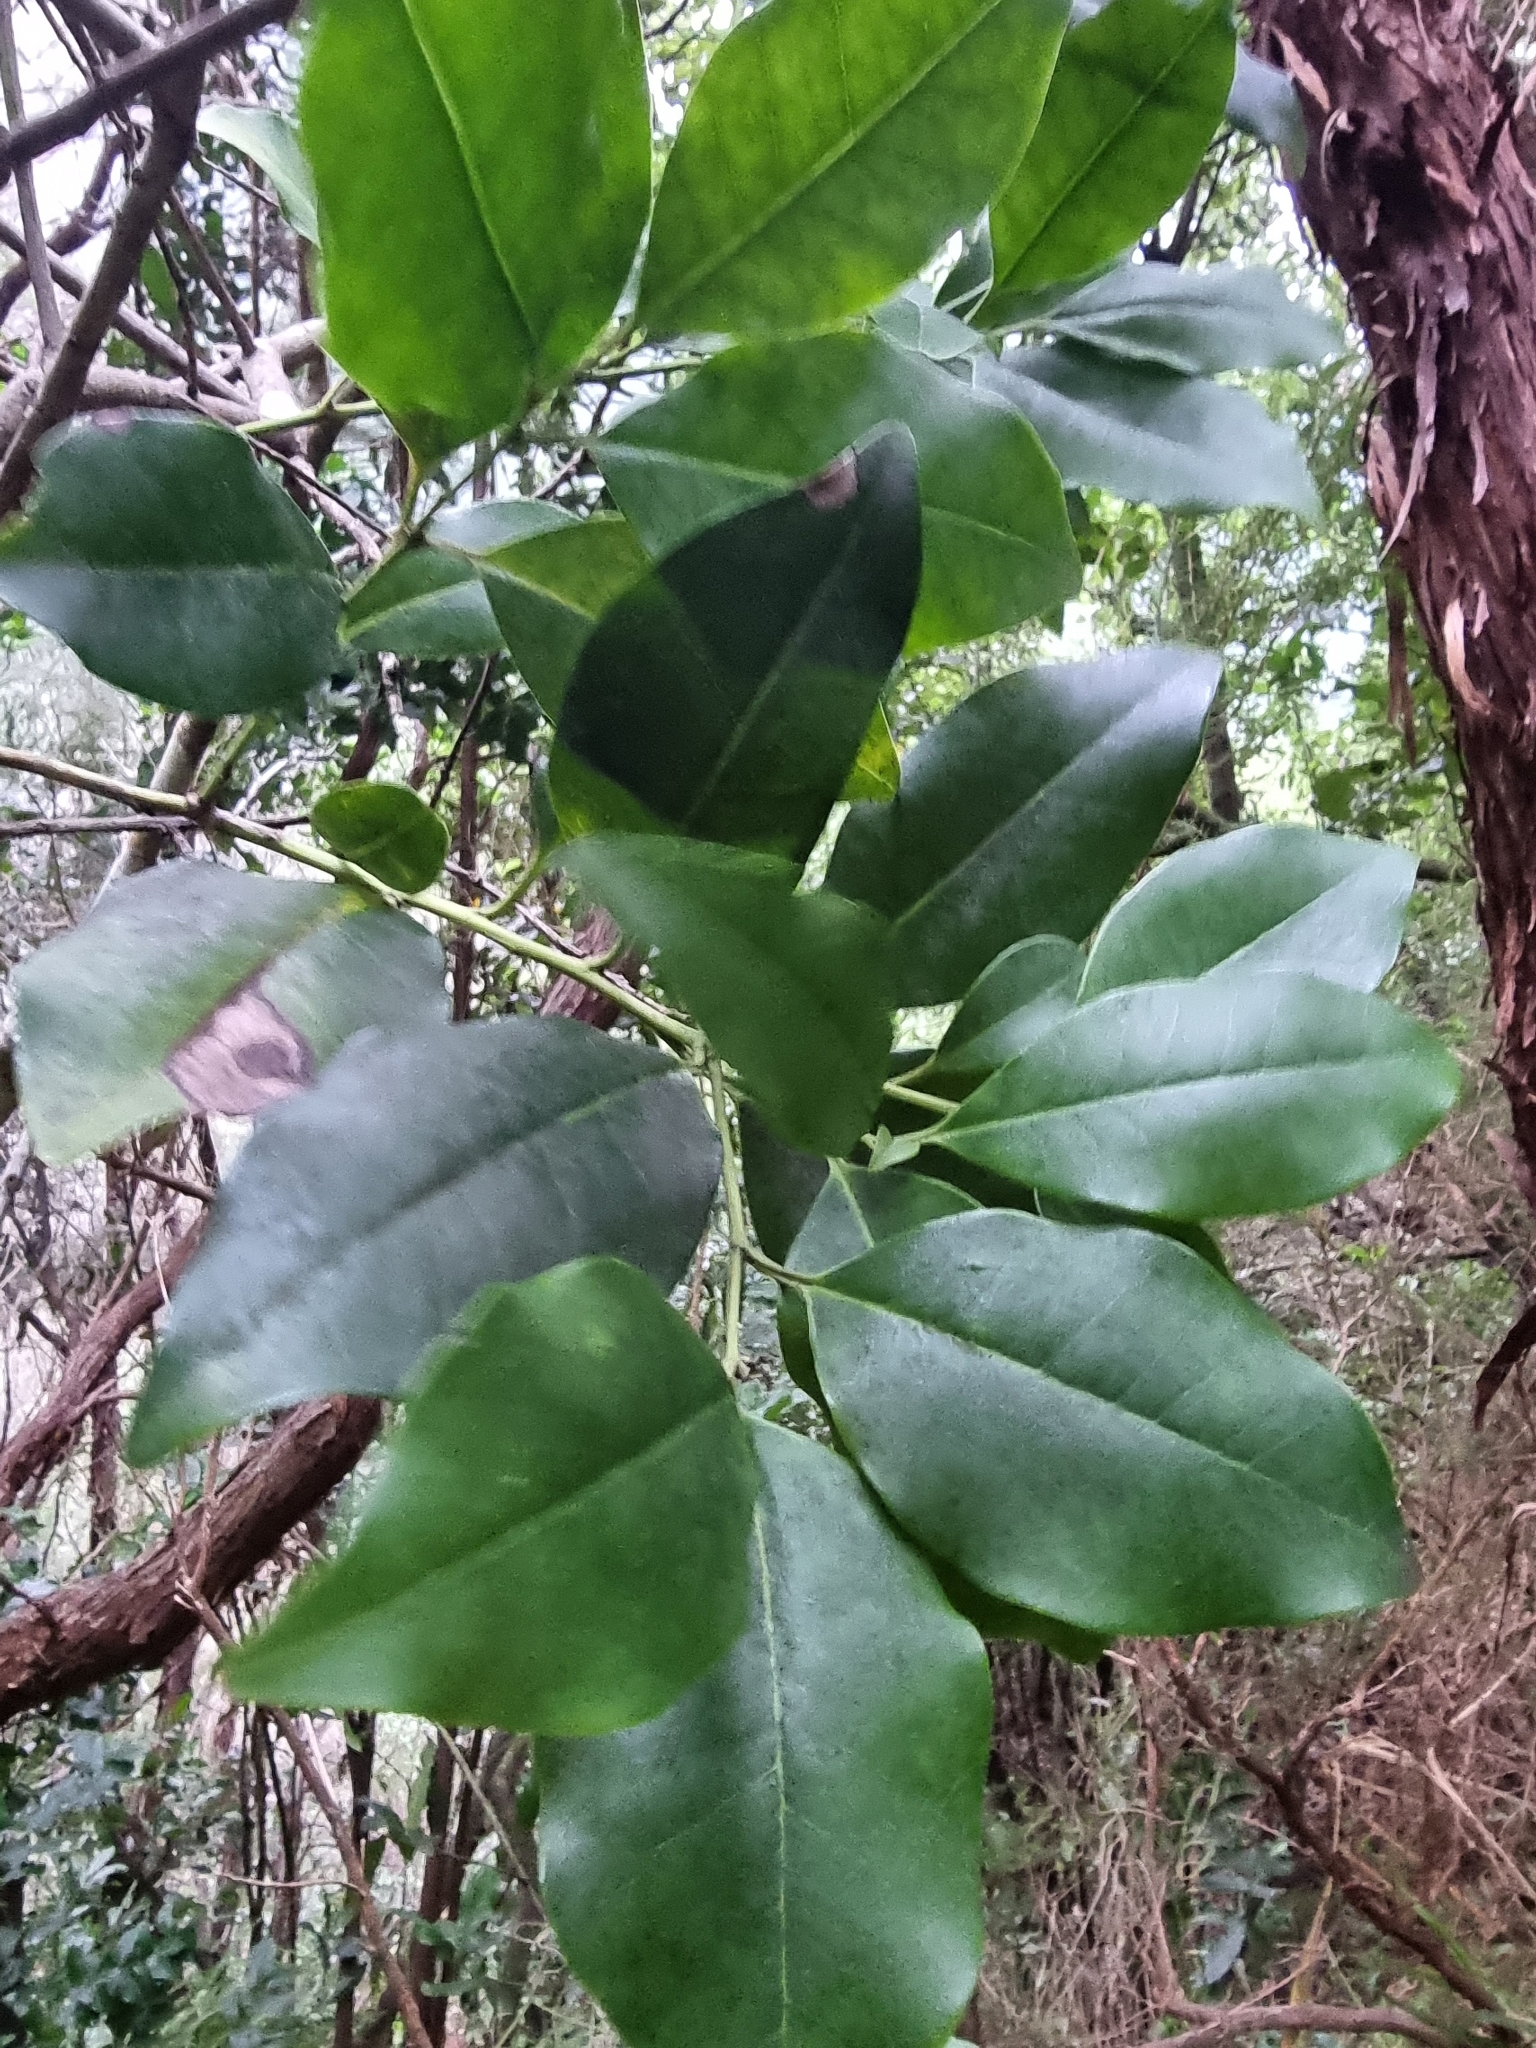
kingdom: Plantae
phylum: Tracheophyta
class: Magnoliopsida
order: Aquifoliales
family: Aquifoliaceae
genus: Ilex
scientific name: Ilex canariensis
